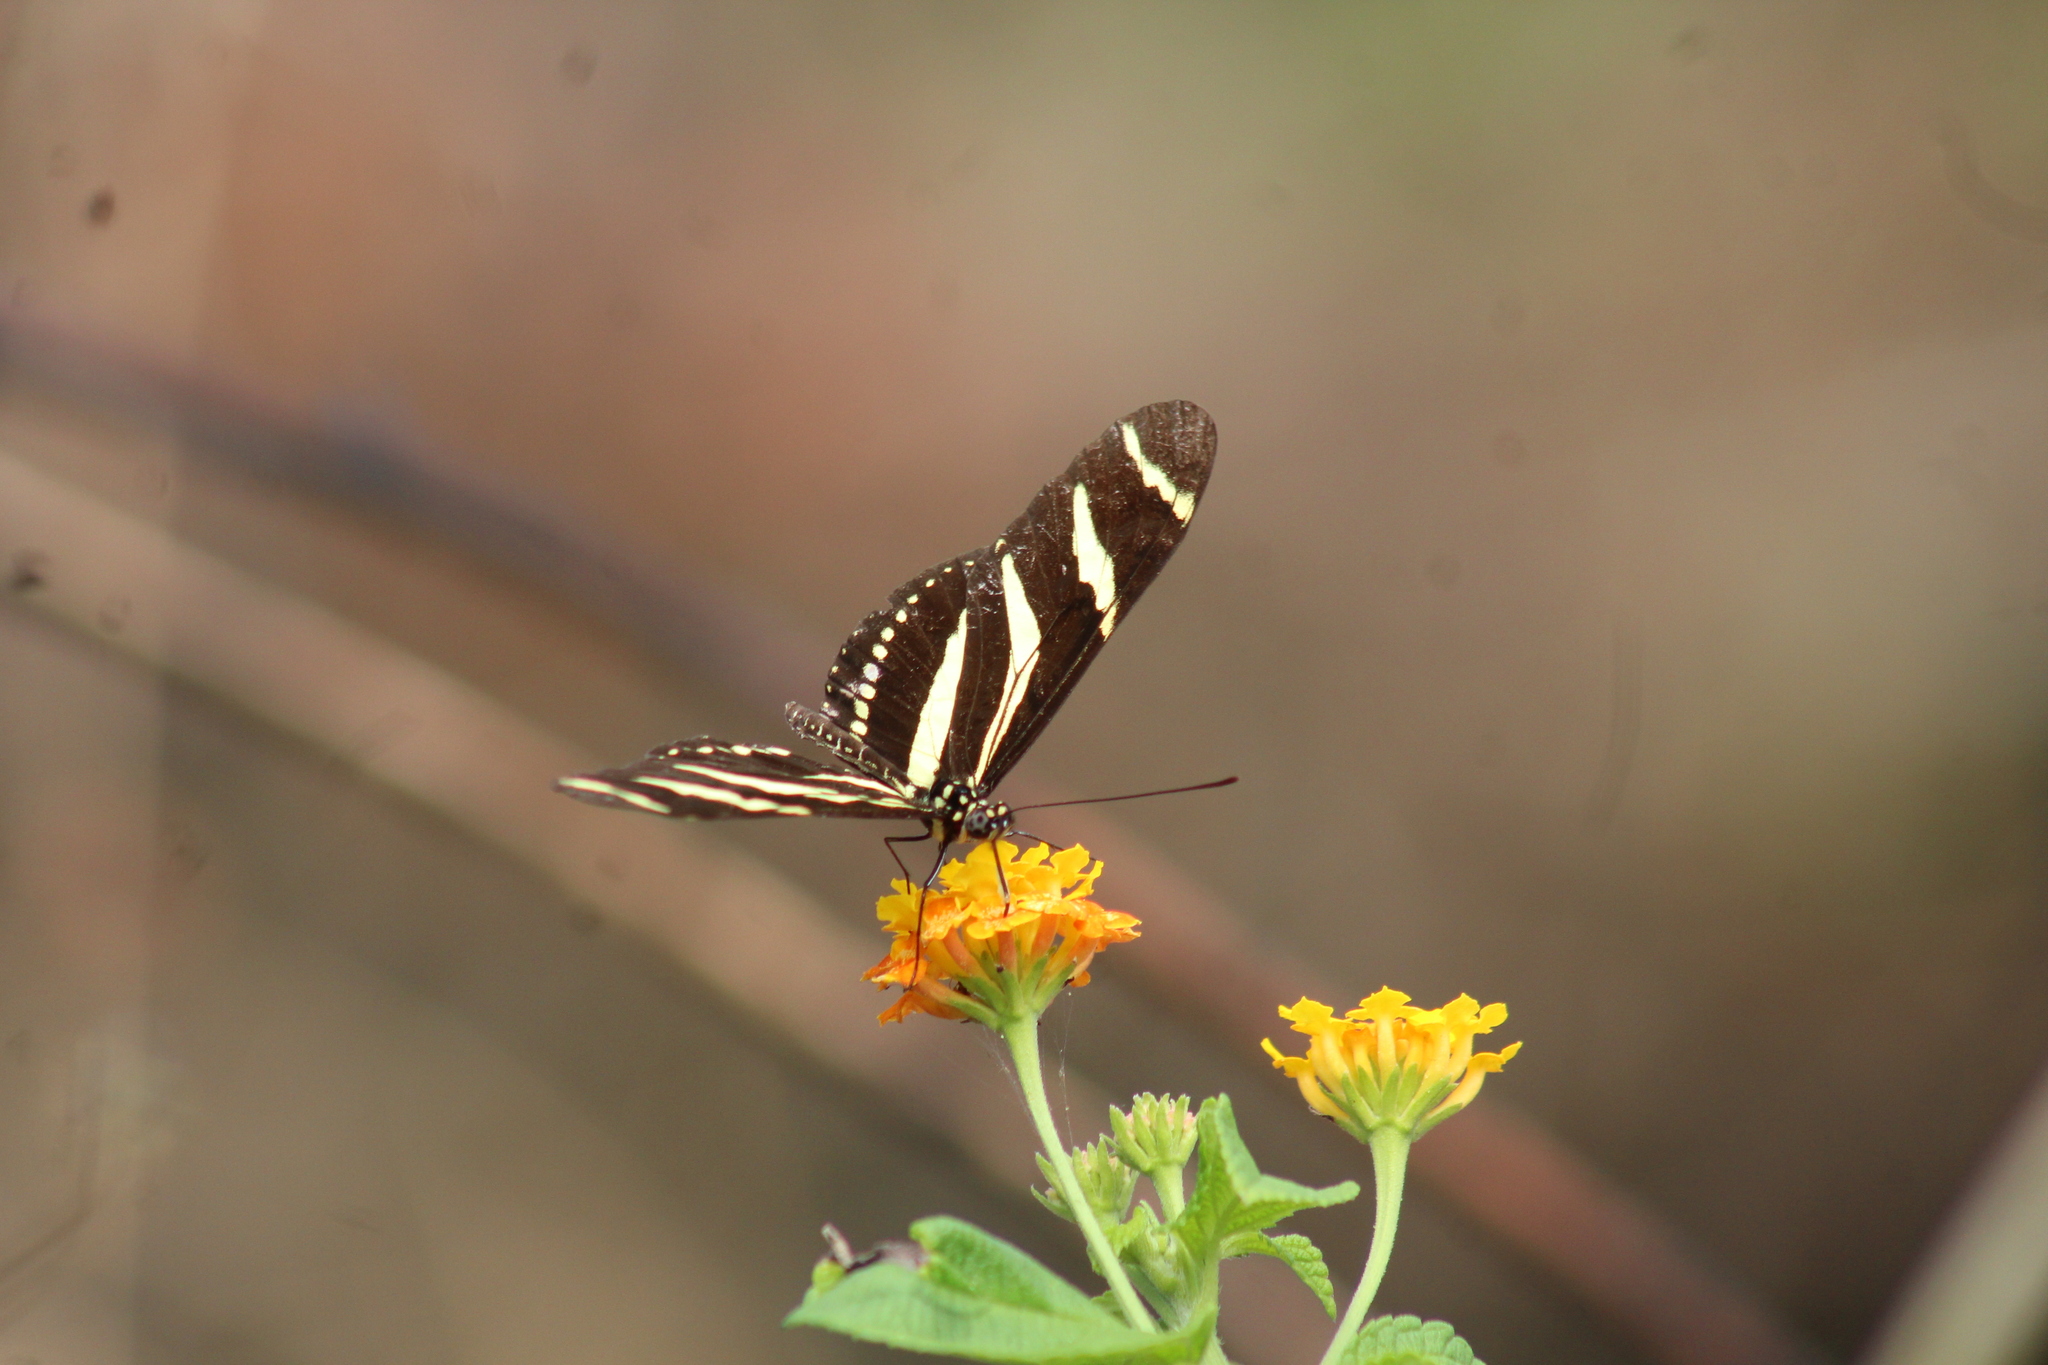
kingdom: Animalia
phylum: Arthropoda
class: Insecta
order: Lepidoptera
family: Nymphalidae
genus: Heliconius
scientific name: Heliconius charithonia
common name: Zebra long wing
